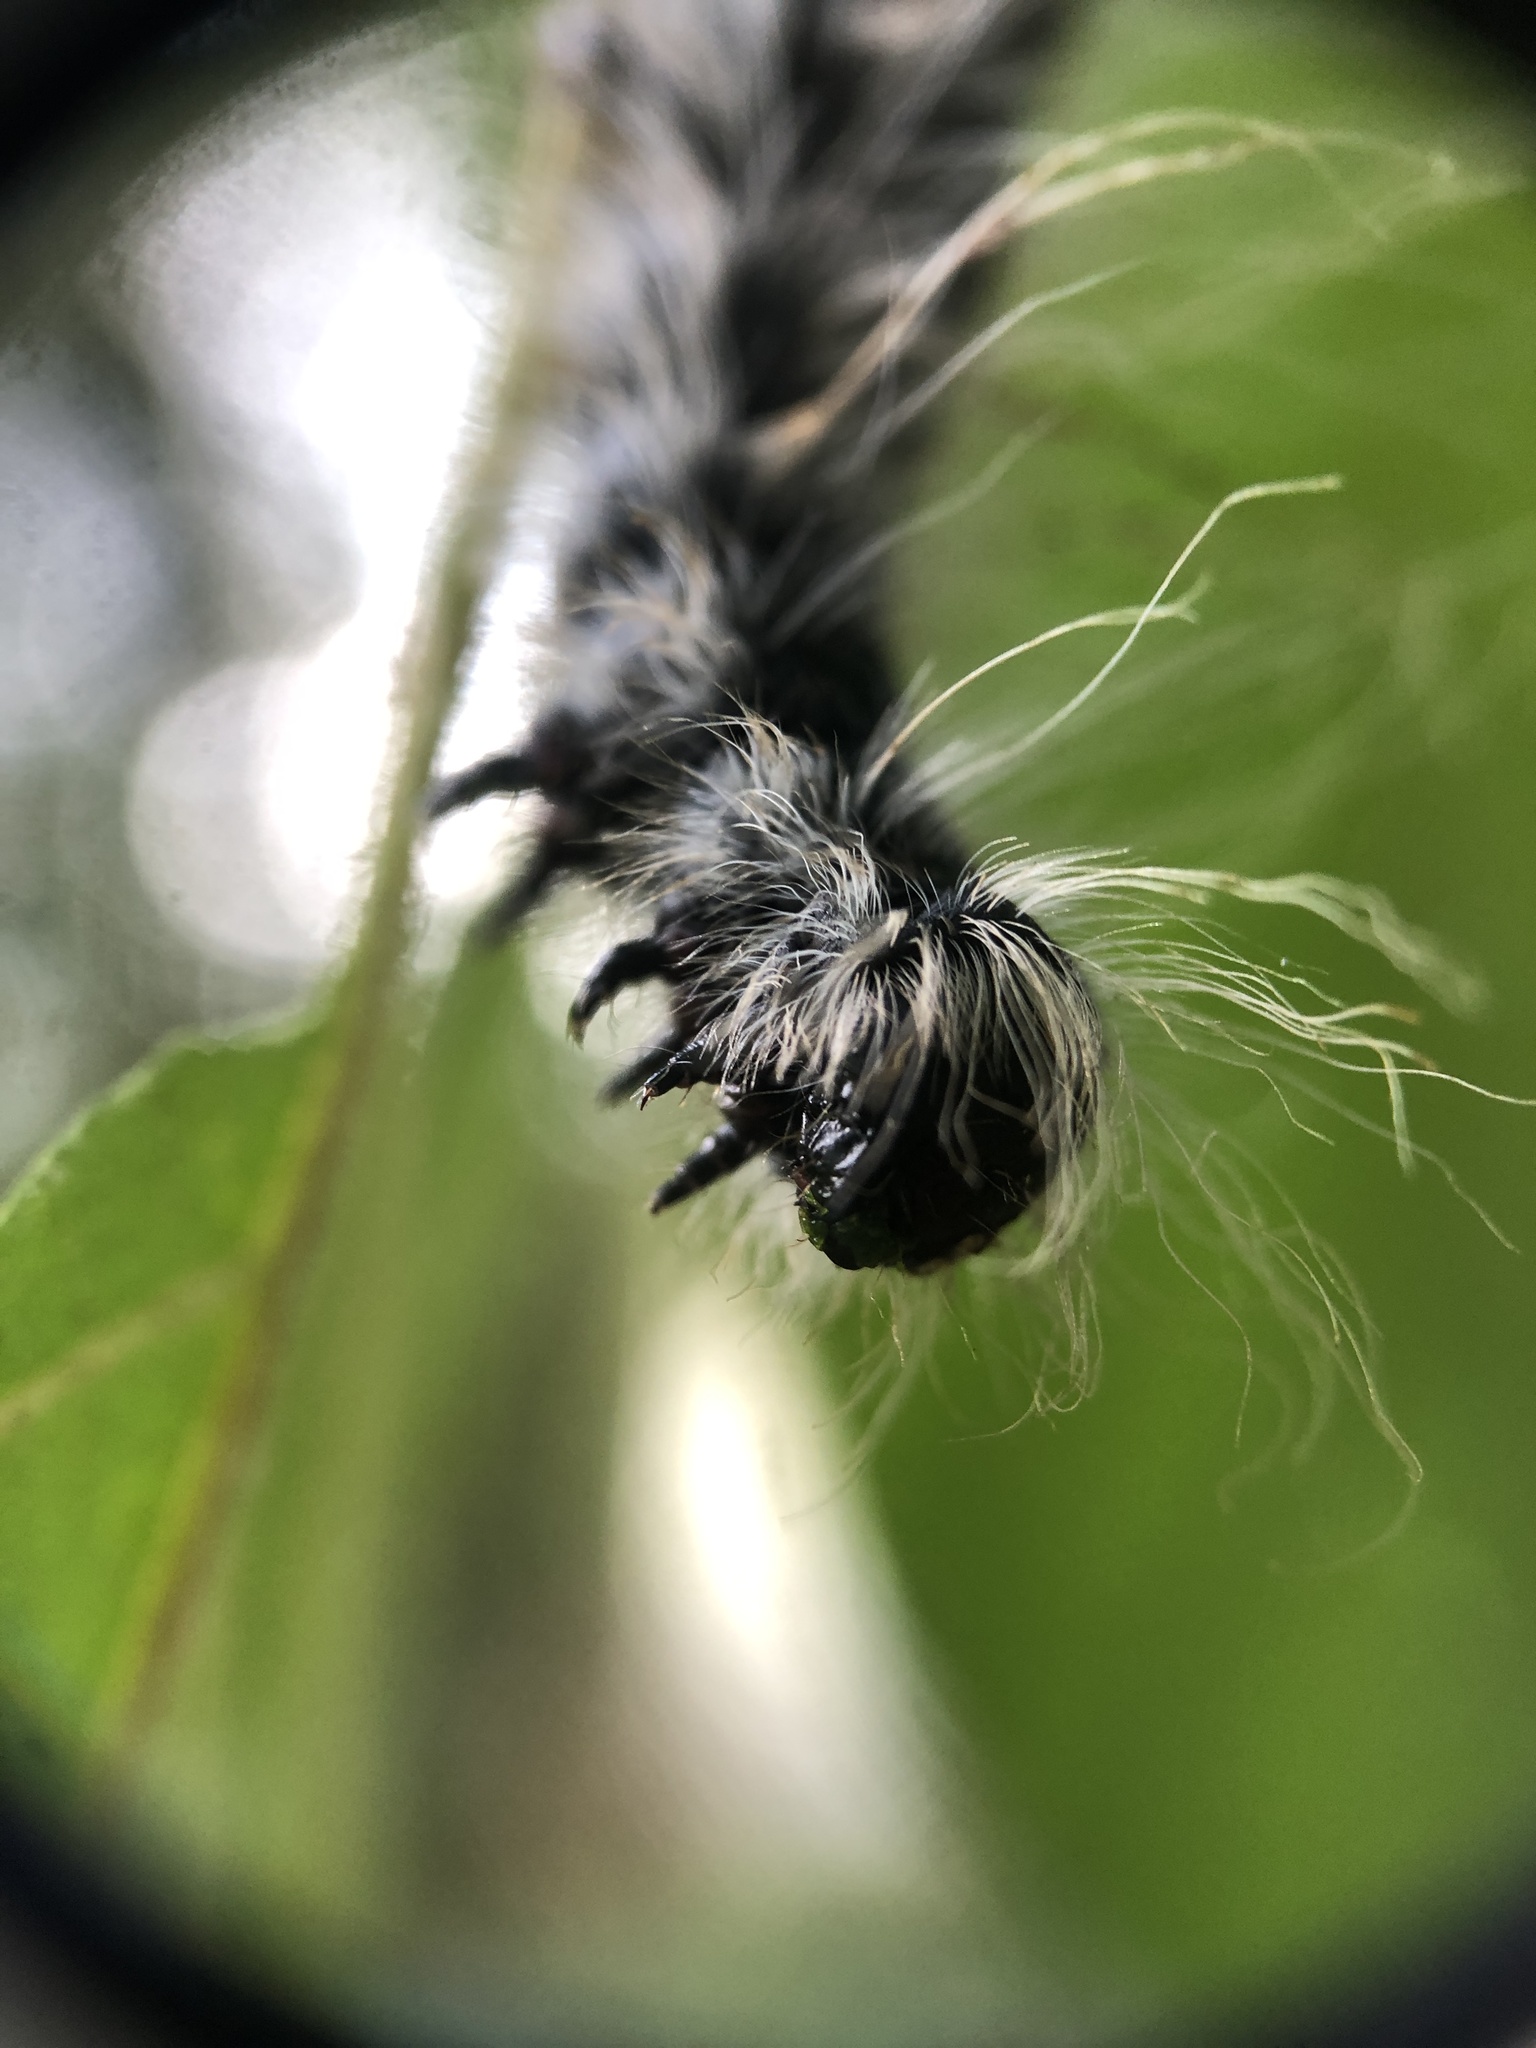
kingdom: Animalia
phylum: Arthropoda
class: Insecta
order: Lepidoptera
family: Notodontidae
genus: Datana
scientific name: Datana integerrima
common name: Walnut caterpillar
